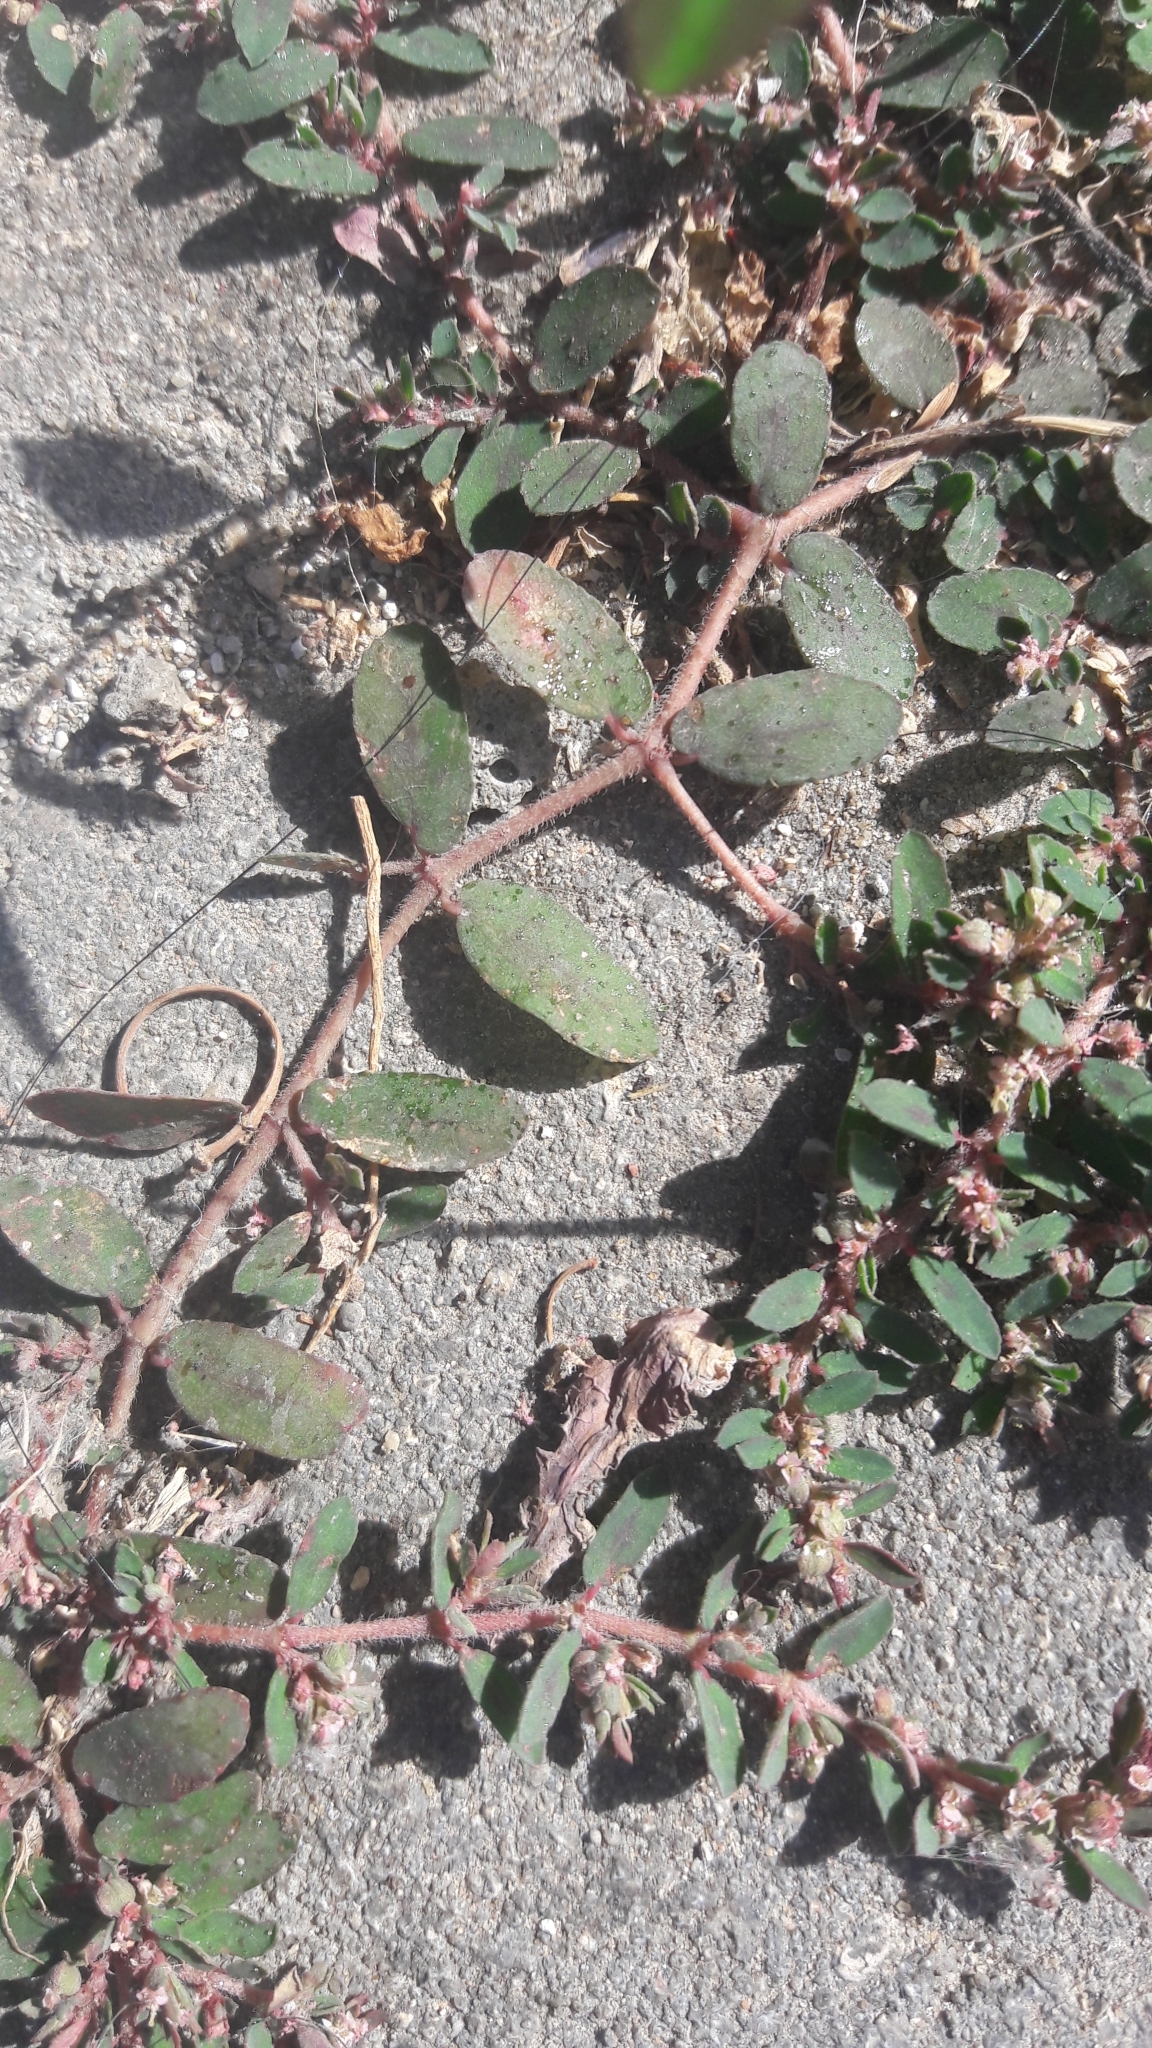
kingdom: Plantae
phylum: Tracheophyta
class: Magnoliopsida
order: Malpighiales
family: Euphorbiaceae
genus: Euphorbia
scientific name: Euphorbia maculata
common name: Spotted spurge
